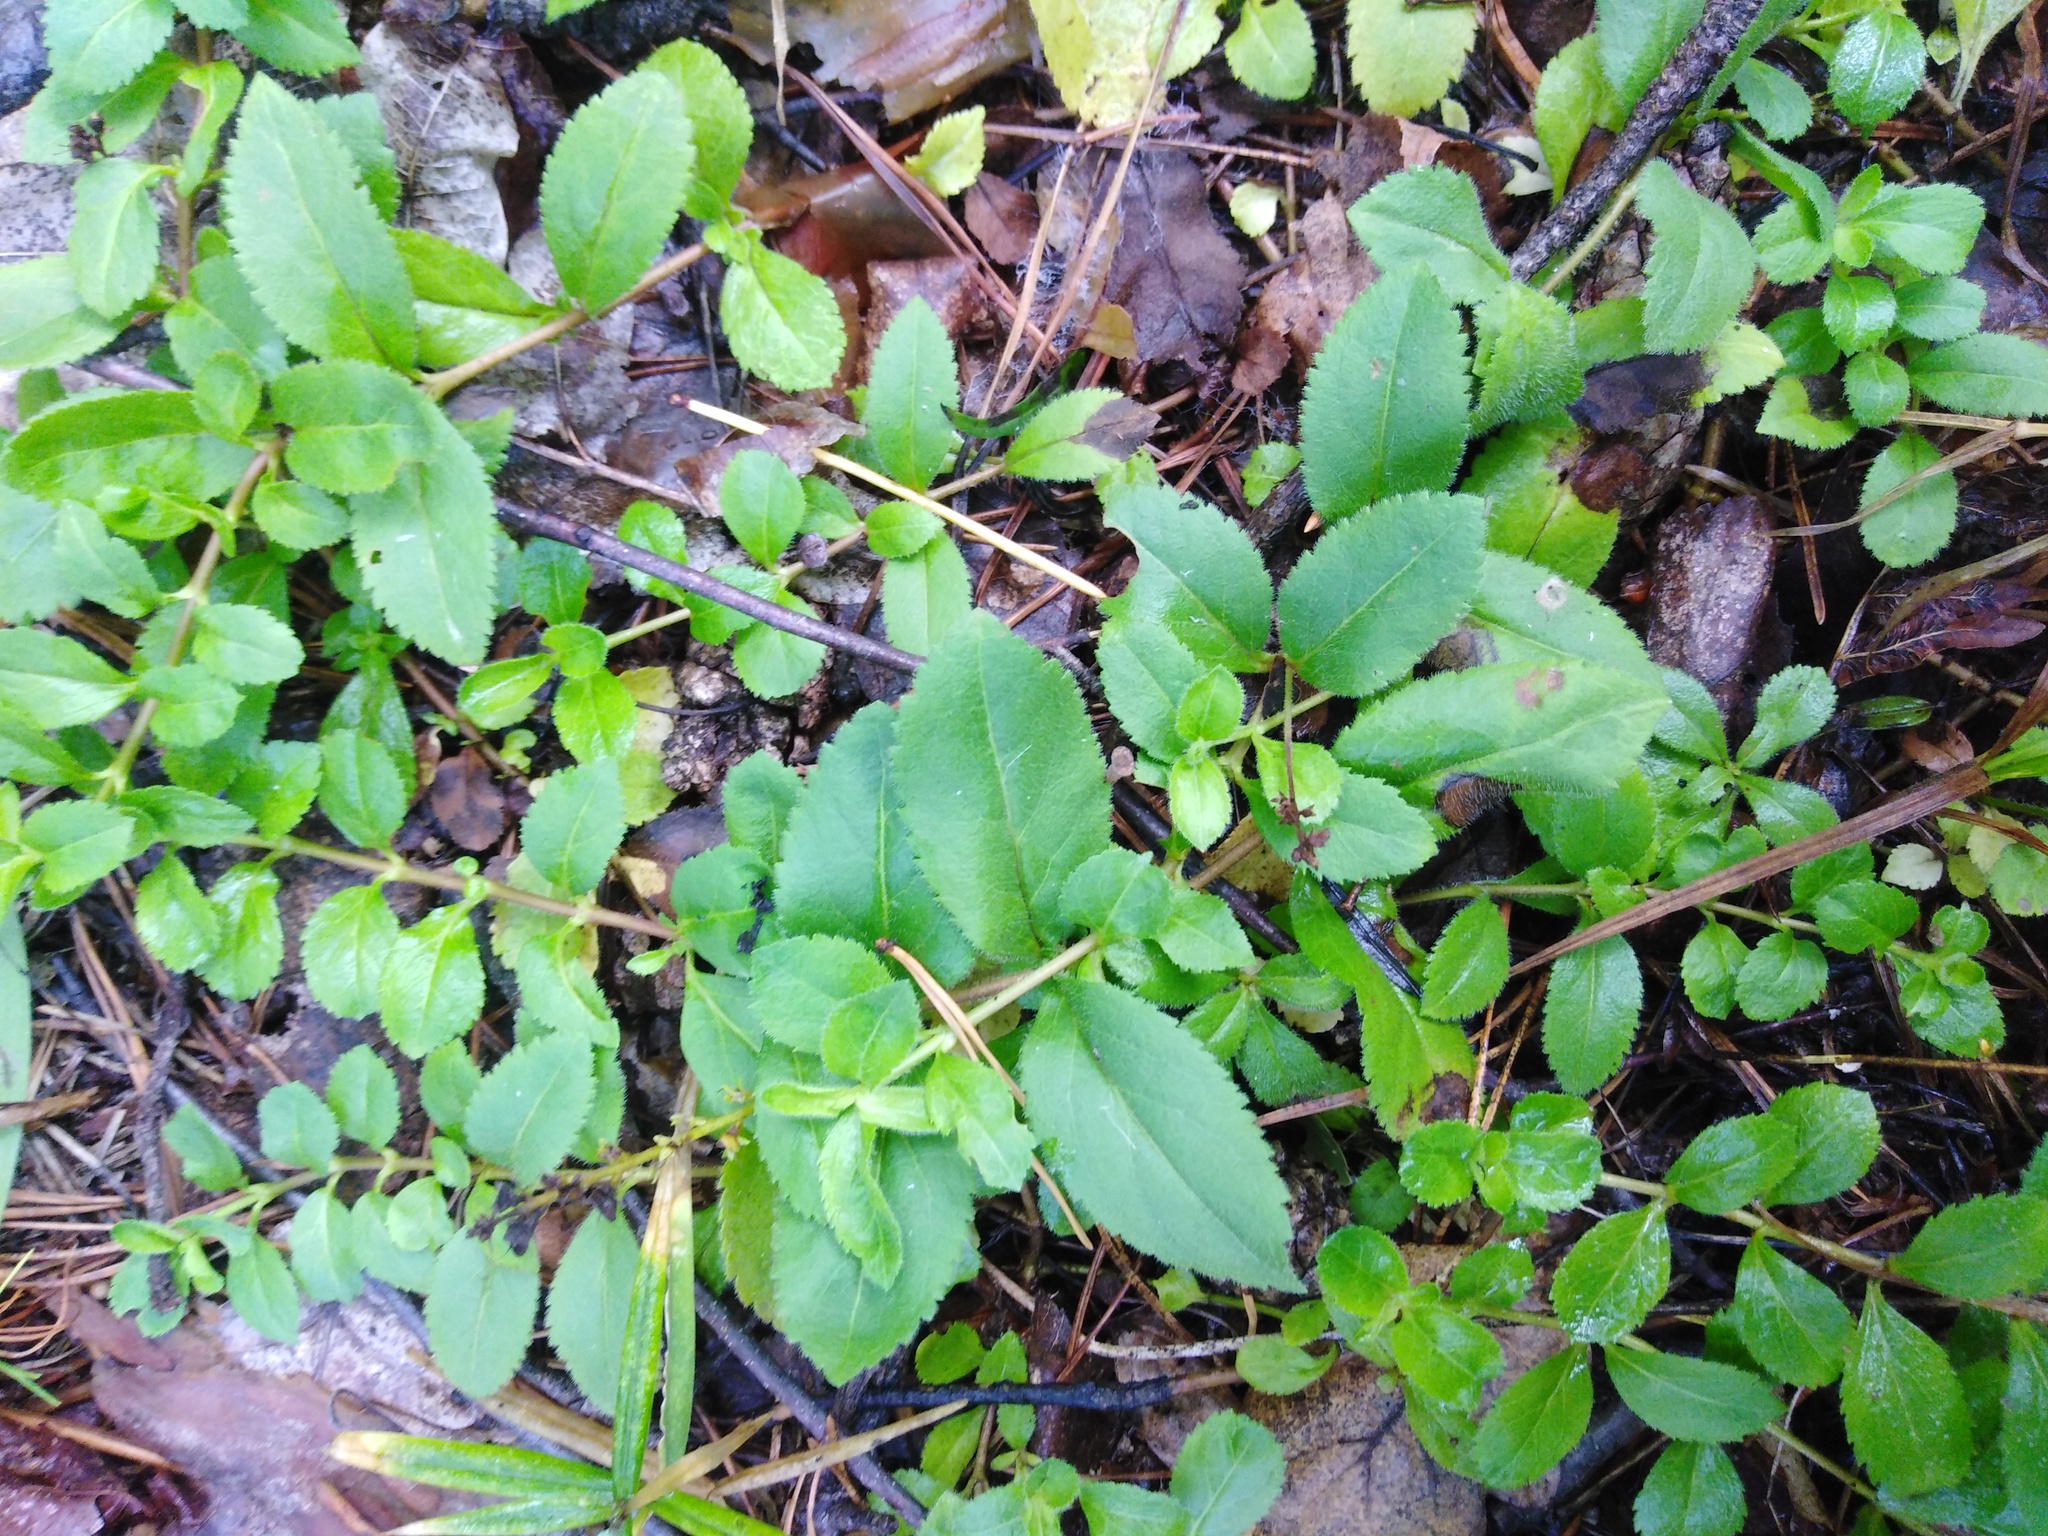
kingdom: Plantae
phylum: Tracheophyta
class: Magnoliopsida
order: Lamiales
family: Plantaginaceae
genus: Veronica
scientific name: Veronica officinalis
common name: Common speedwell
